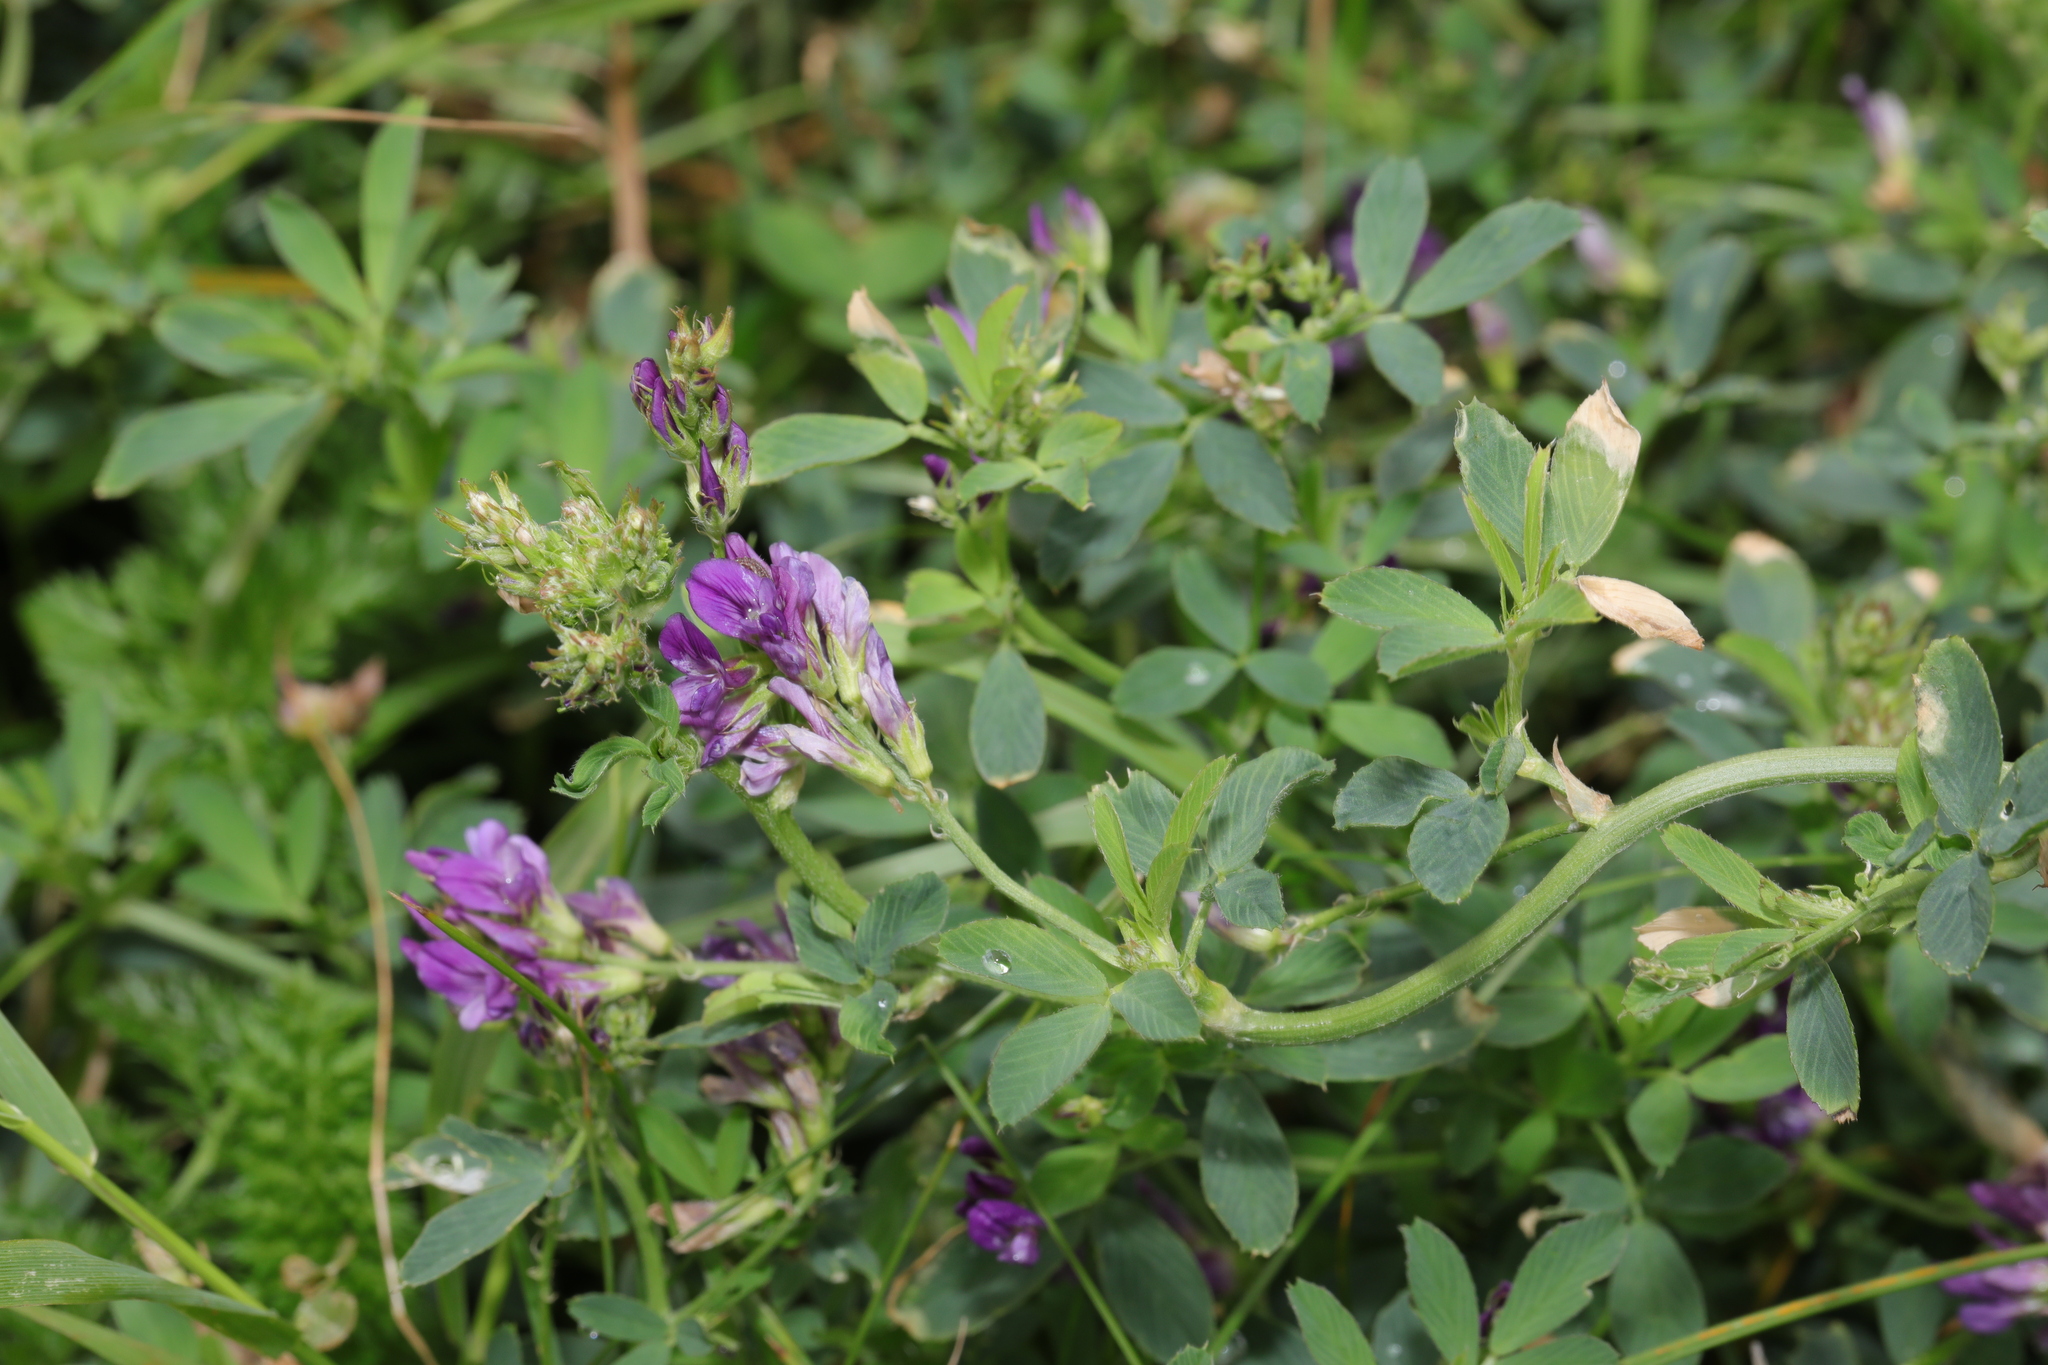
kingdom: Plantae
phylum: Tracheophyta
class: Magnoliopsida
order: Fabales
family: Fabaceae
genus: Medicago
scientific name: Medicago sativa
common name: Alfalfa
